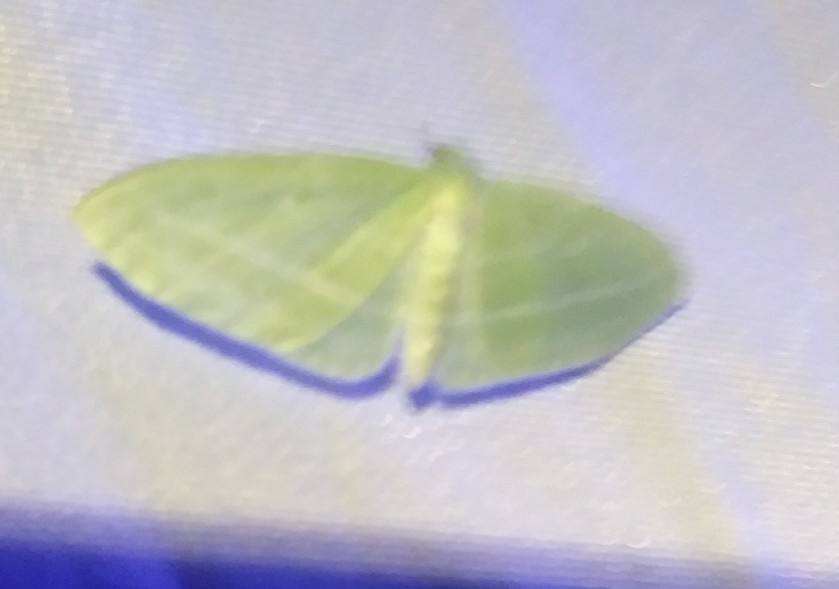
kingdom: Animalia
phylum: Arthropoda
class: Insecta
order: Lepidoptera
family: Geometridae
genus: Dyspteris
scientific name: Dyspteris abortivaria
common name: Bad-wing
